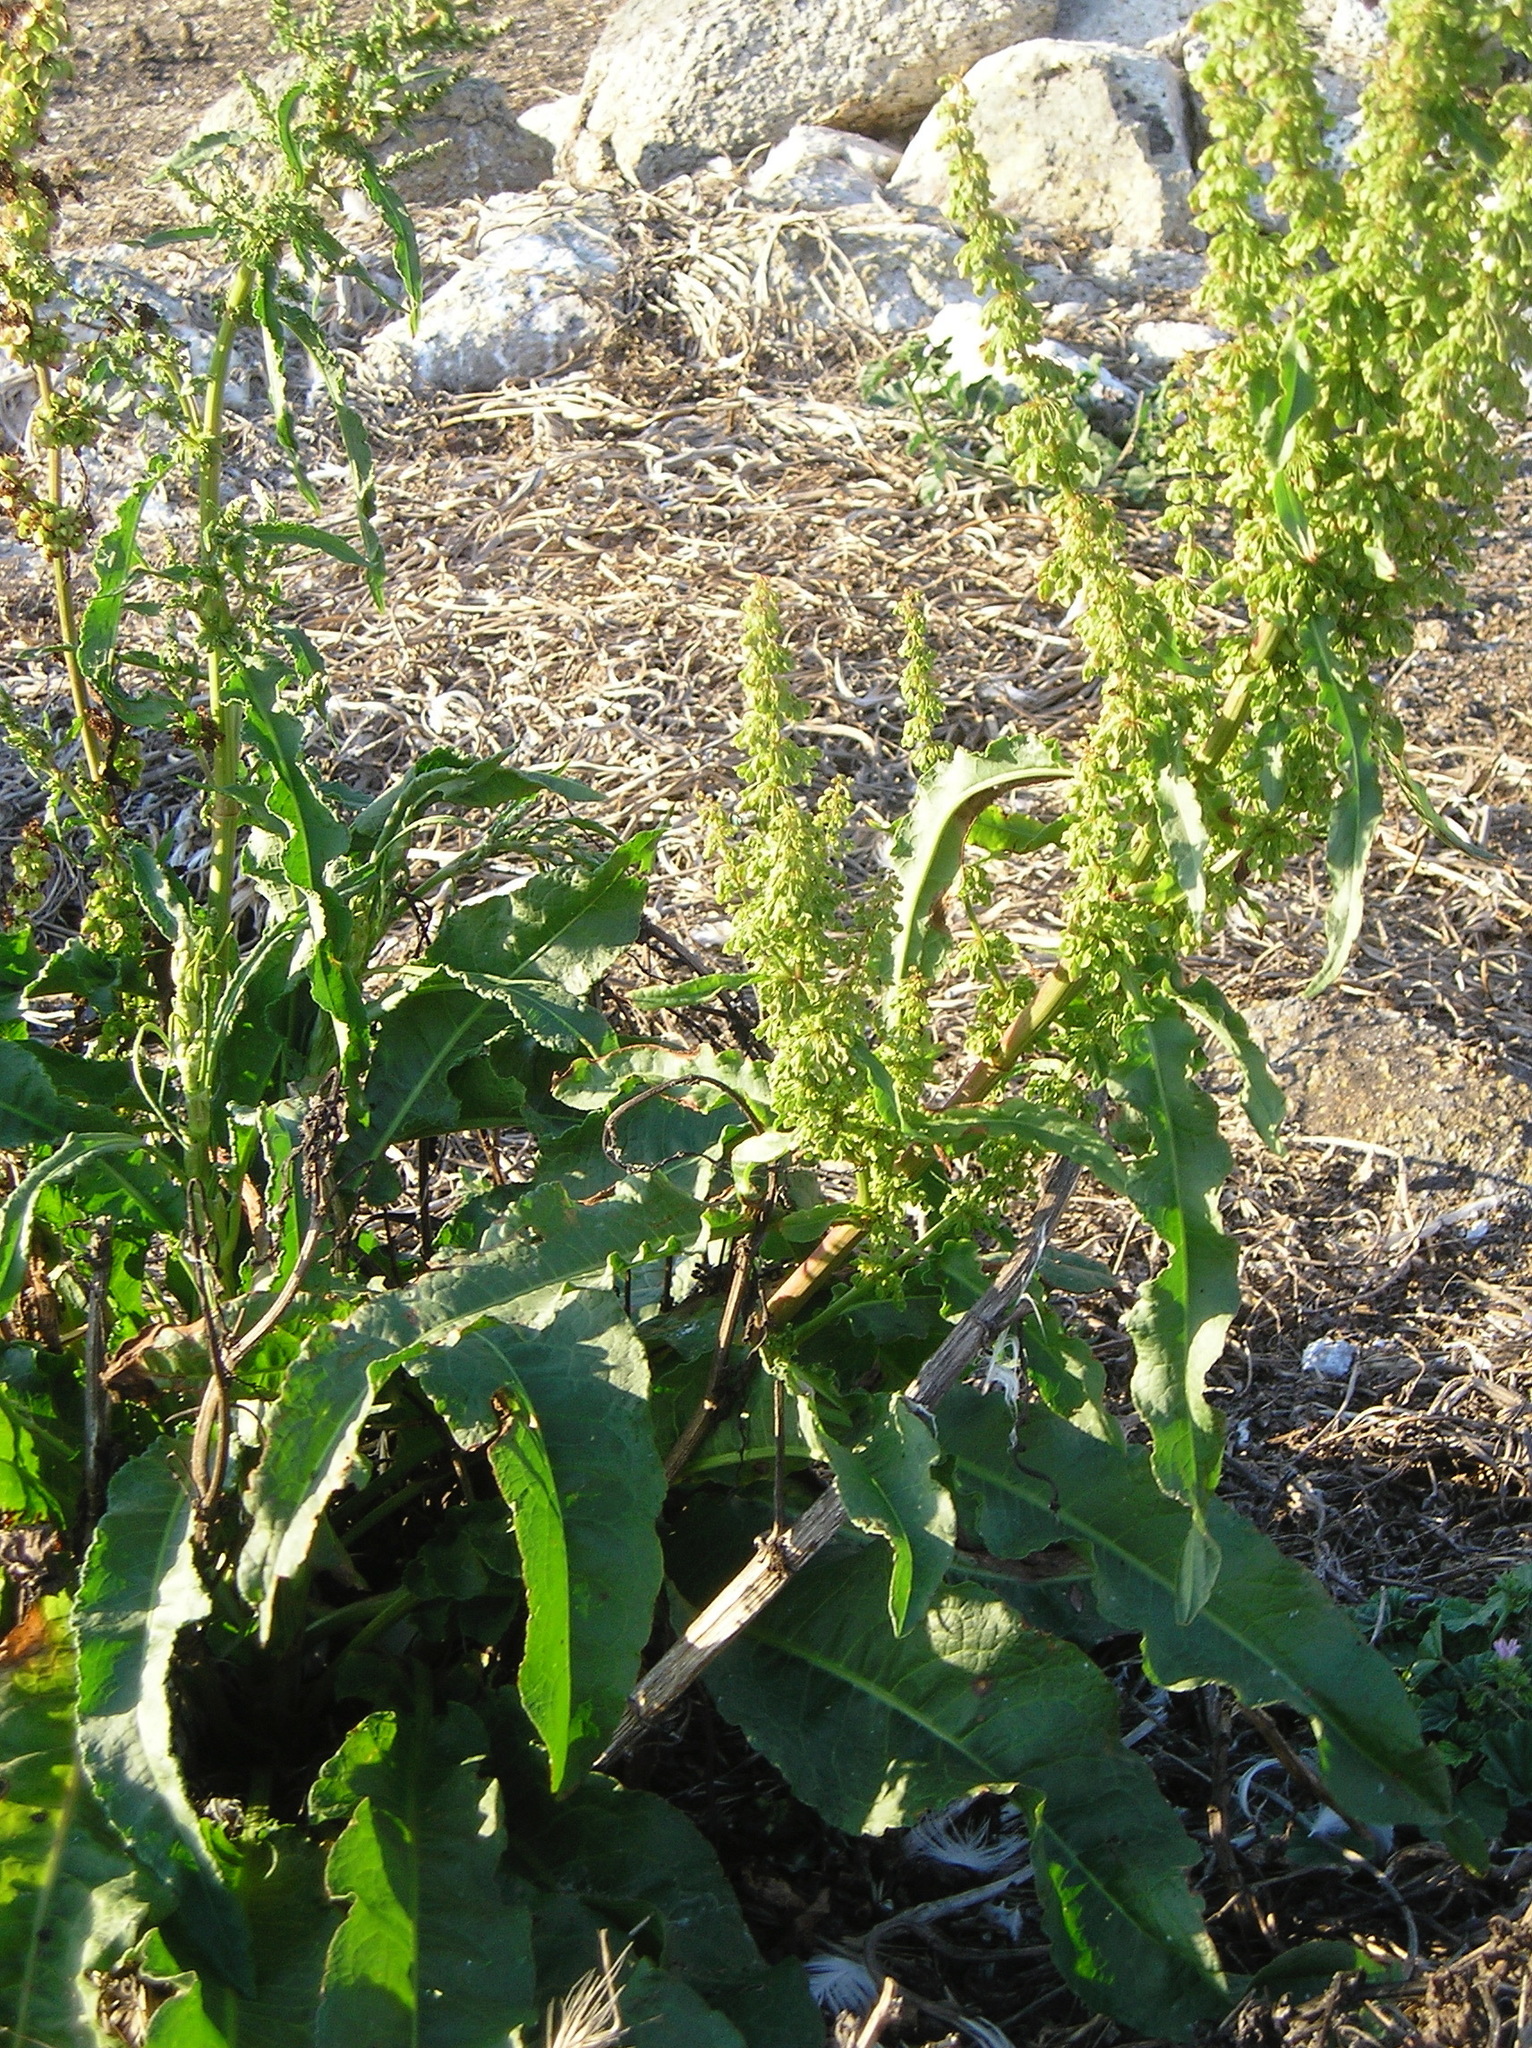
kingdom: Plantae
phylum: Tracheophyta
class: Magnoliopsida
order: Caryophyllales
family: Polygonaceae
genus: Rumex
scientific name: Rumex crispus
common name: Curled dock
